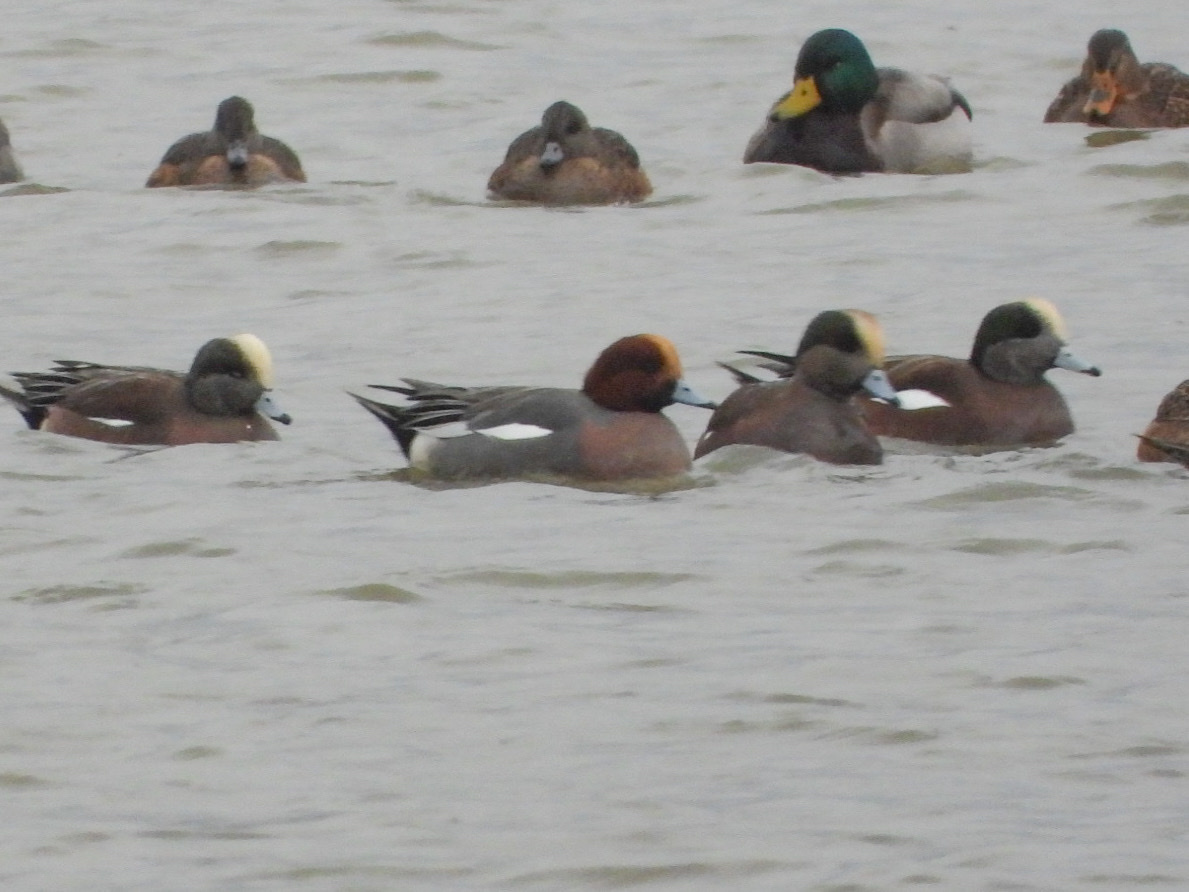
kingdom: Animalia
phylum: Chordata
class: Aves
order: Anseriformes
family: Anatidae
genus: Mareca
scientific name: Mareca penelope
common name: Eurasian wigeon
